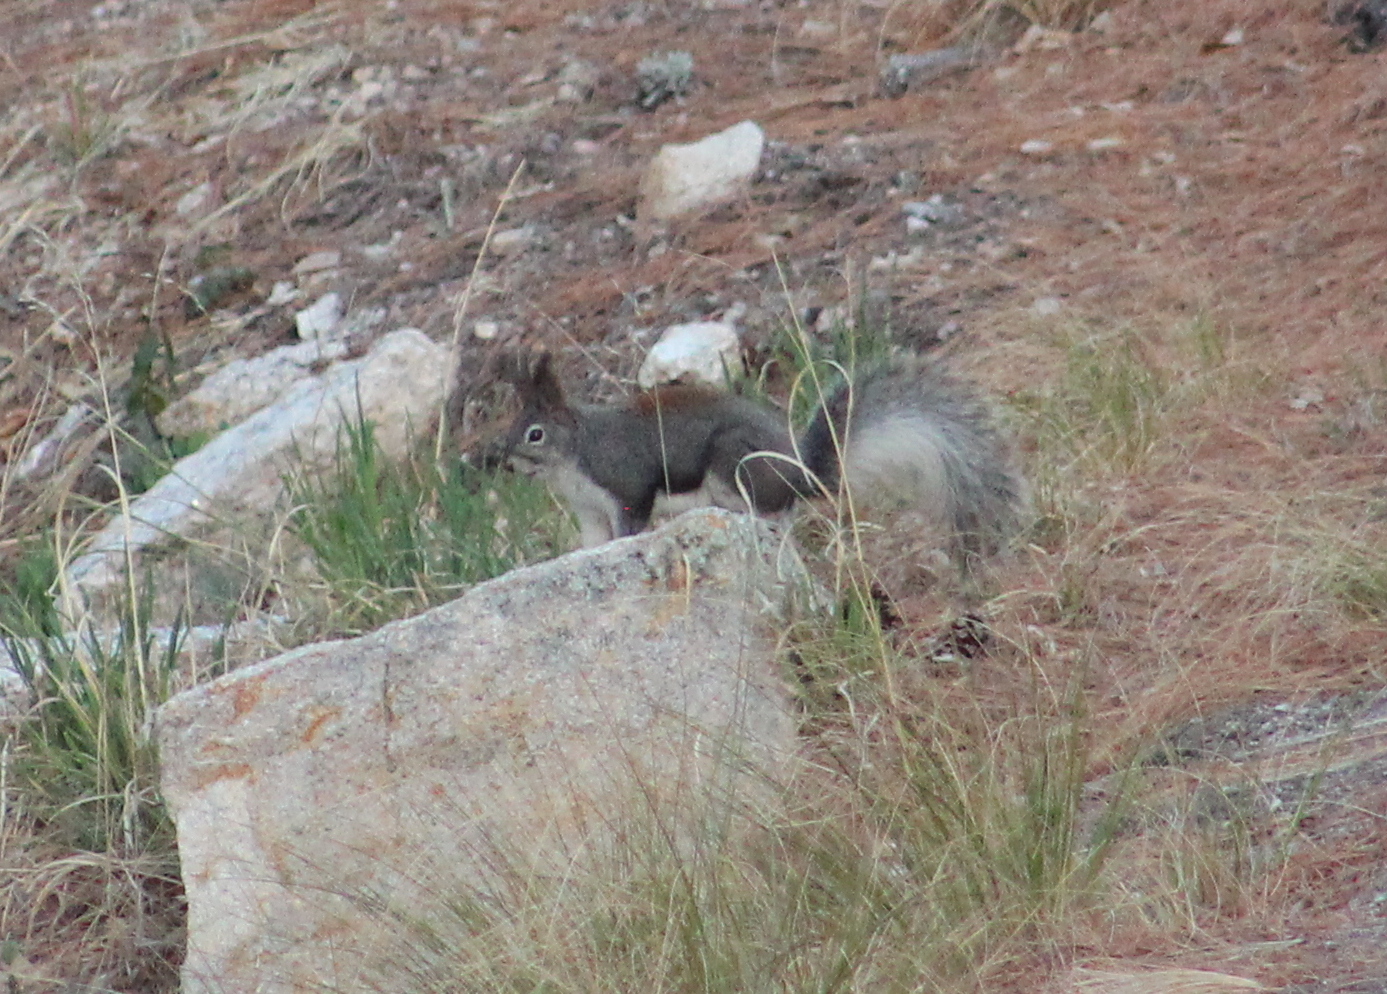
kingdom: Animalia
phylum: Chordata
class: Mammalia
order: Rodentia
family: Sciuridae
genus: Sciurus
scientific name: Sciurus aberti
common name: Abert's squirrel
